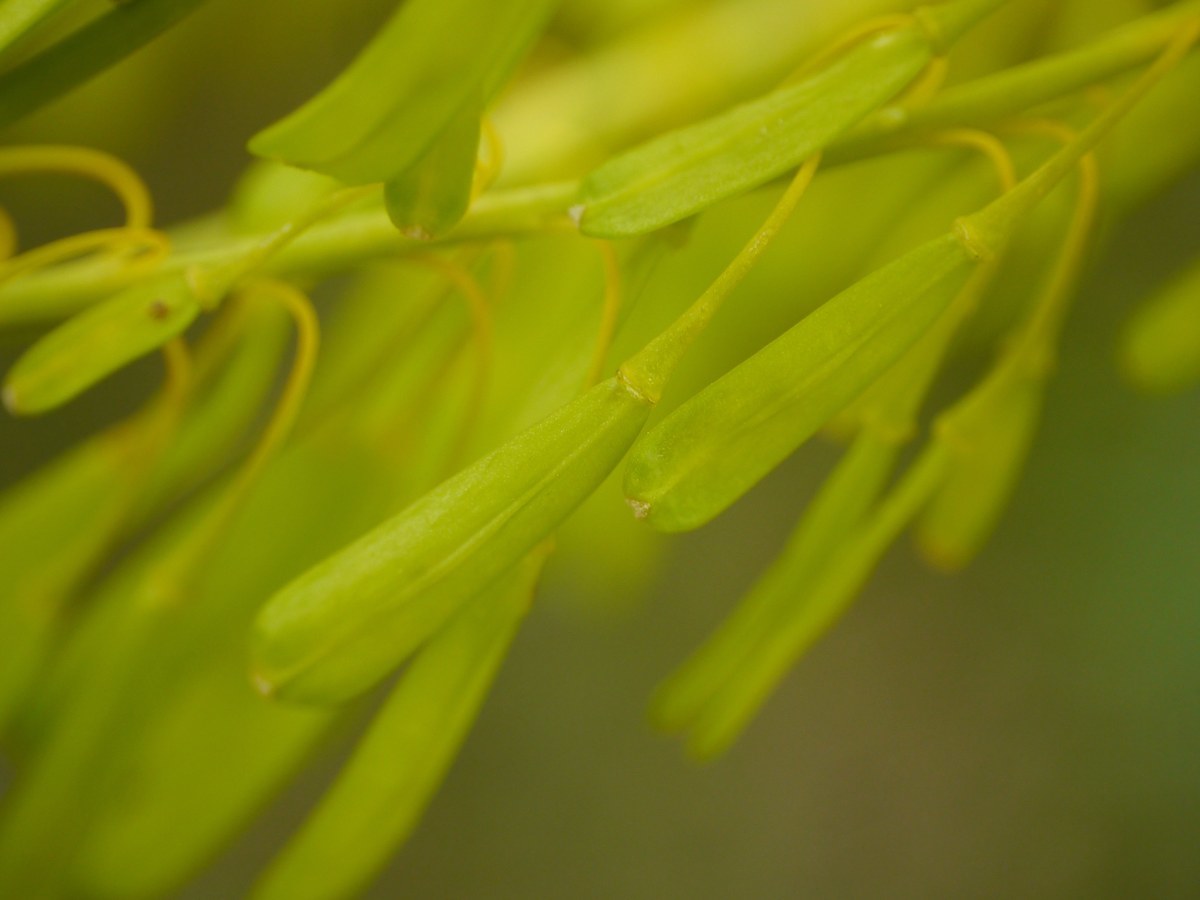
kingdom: Plantae
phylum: Tracheophyta
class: Magnoliopsida
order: Brassicales
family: Brassicaceae
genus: Isatis
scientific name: Isatis tinctoria
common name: Woad
